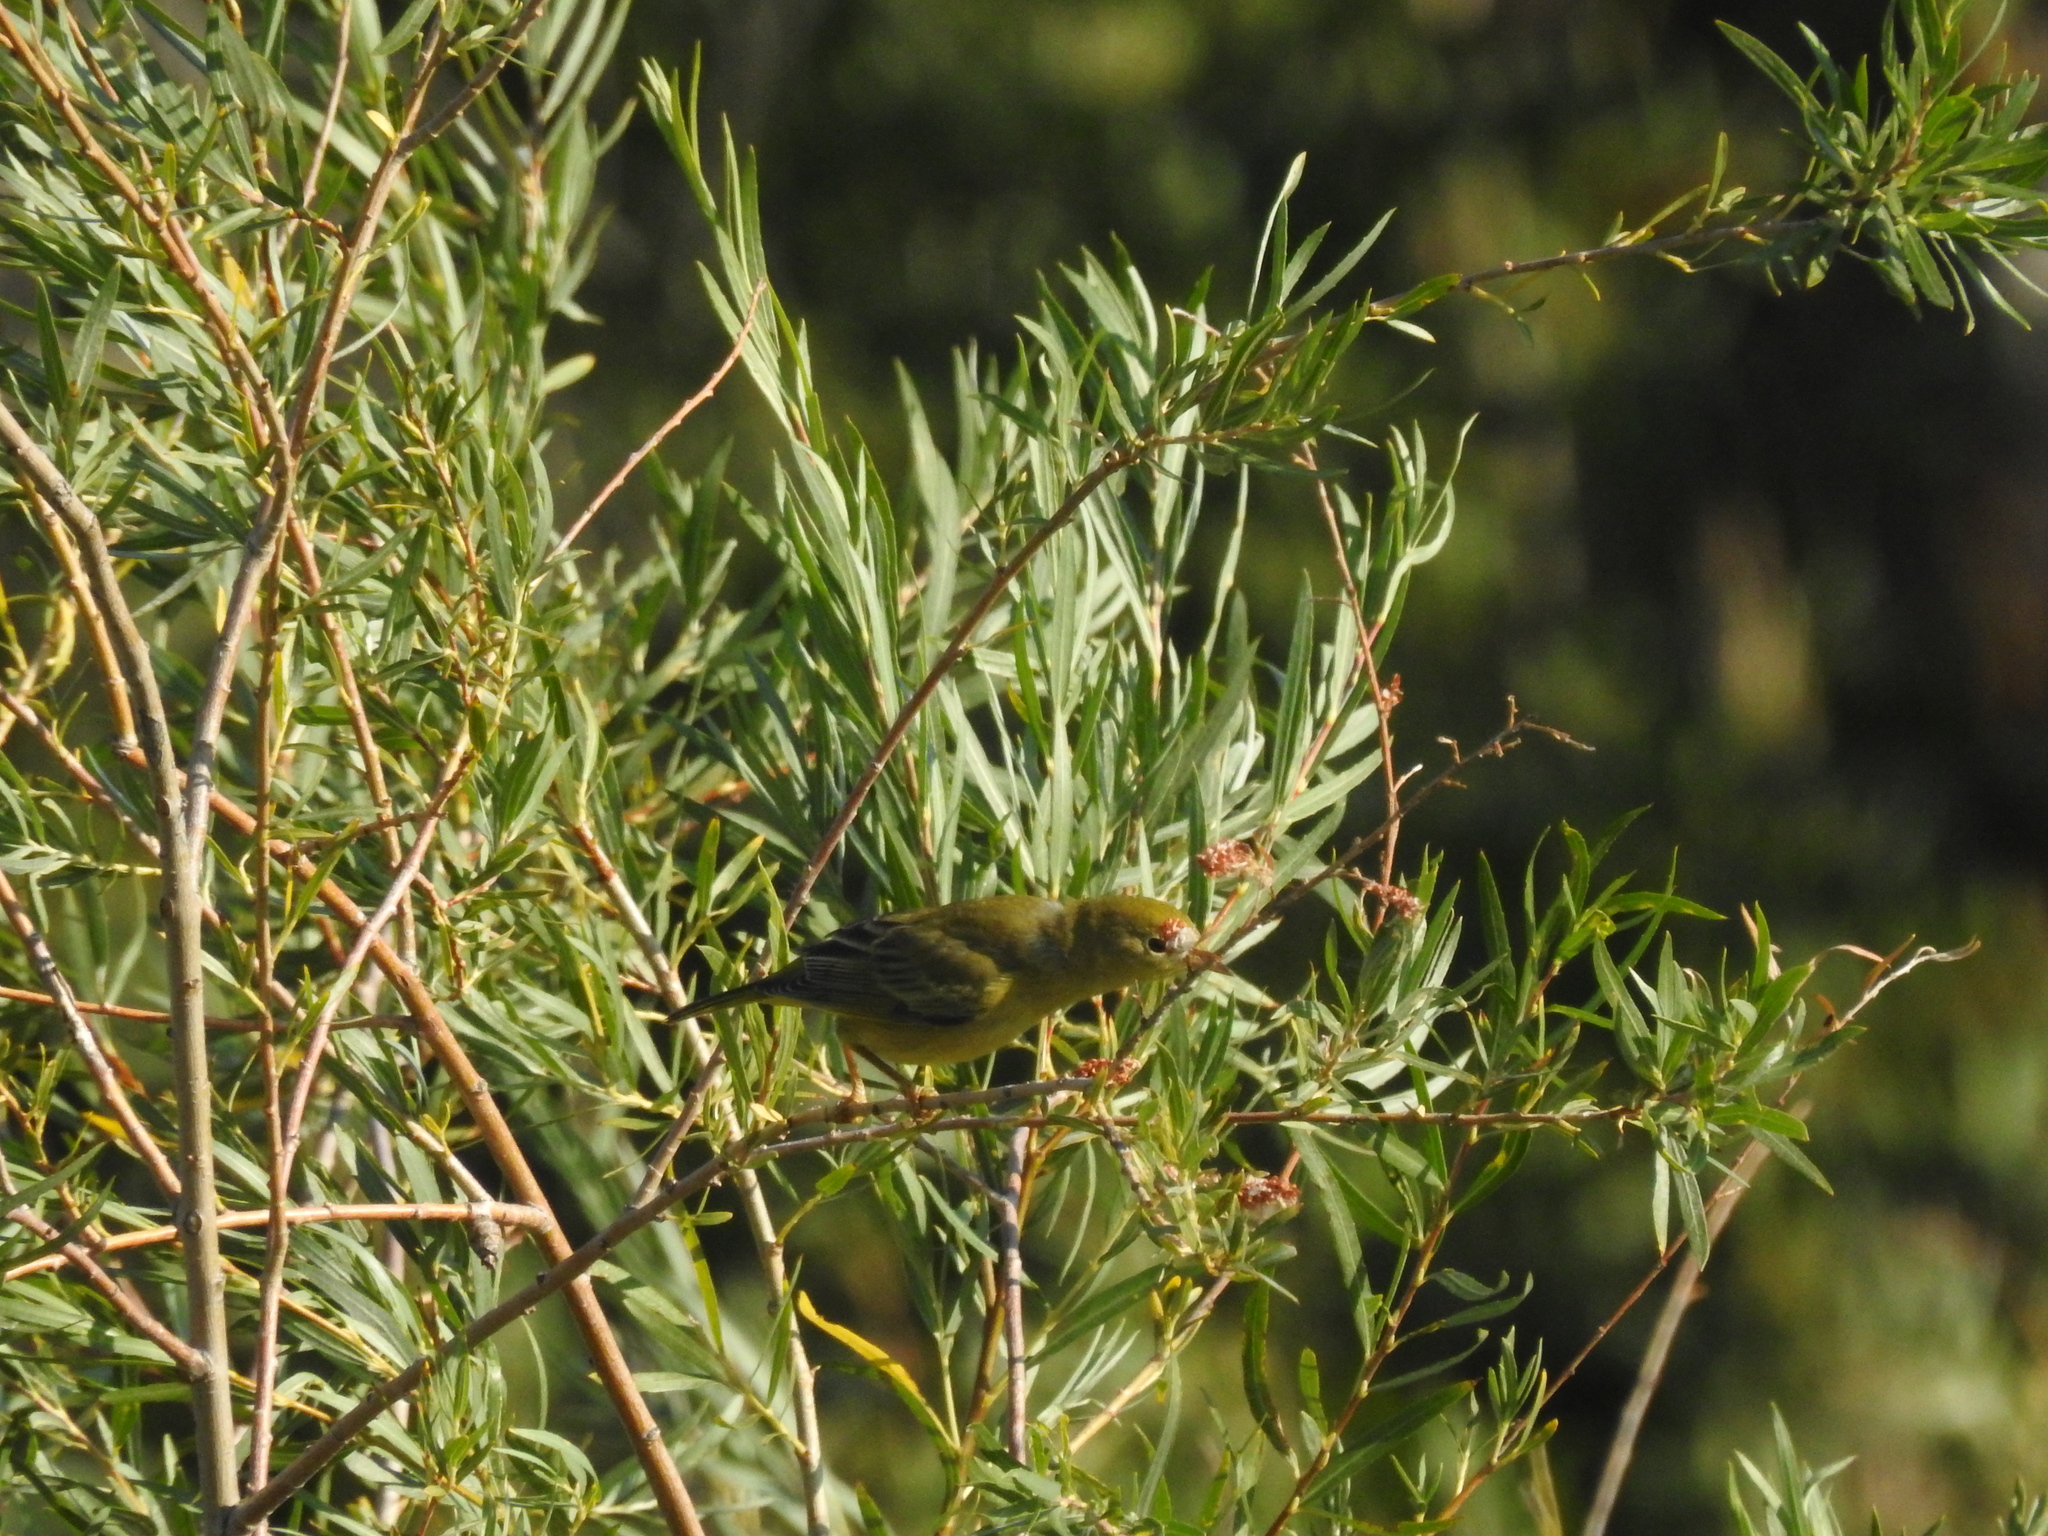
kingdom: Animalia
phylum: Chordata
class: Aves
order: Passeriformes
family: Parulidae
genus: Setophaga
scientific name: Setophaga petechia
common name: Yellow warbler
